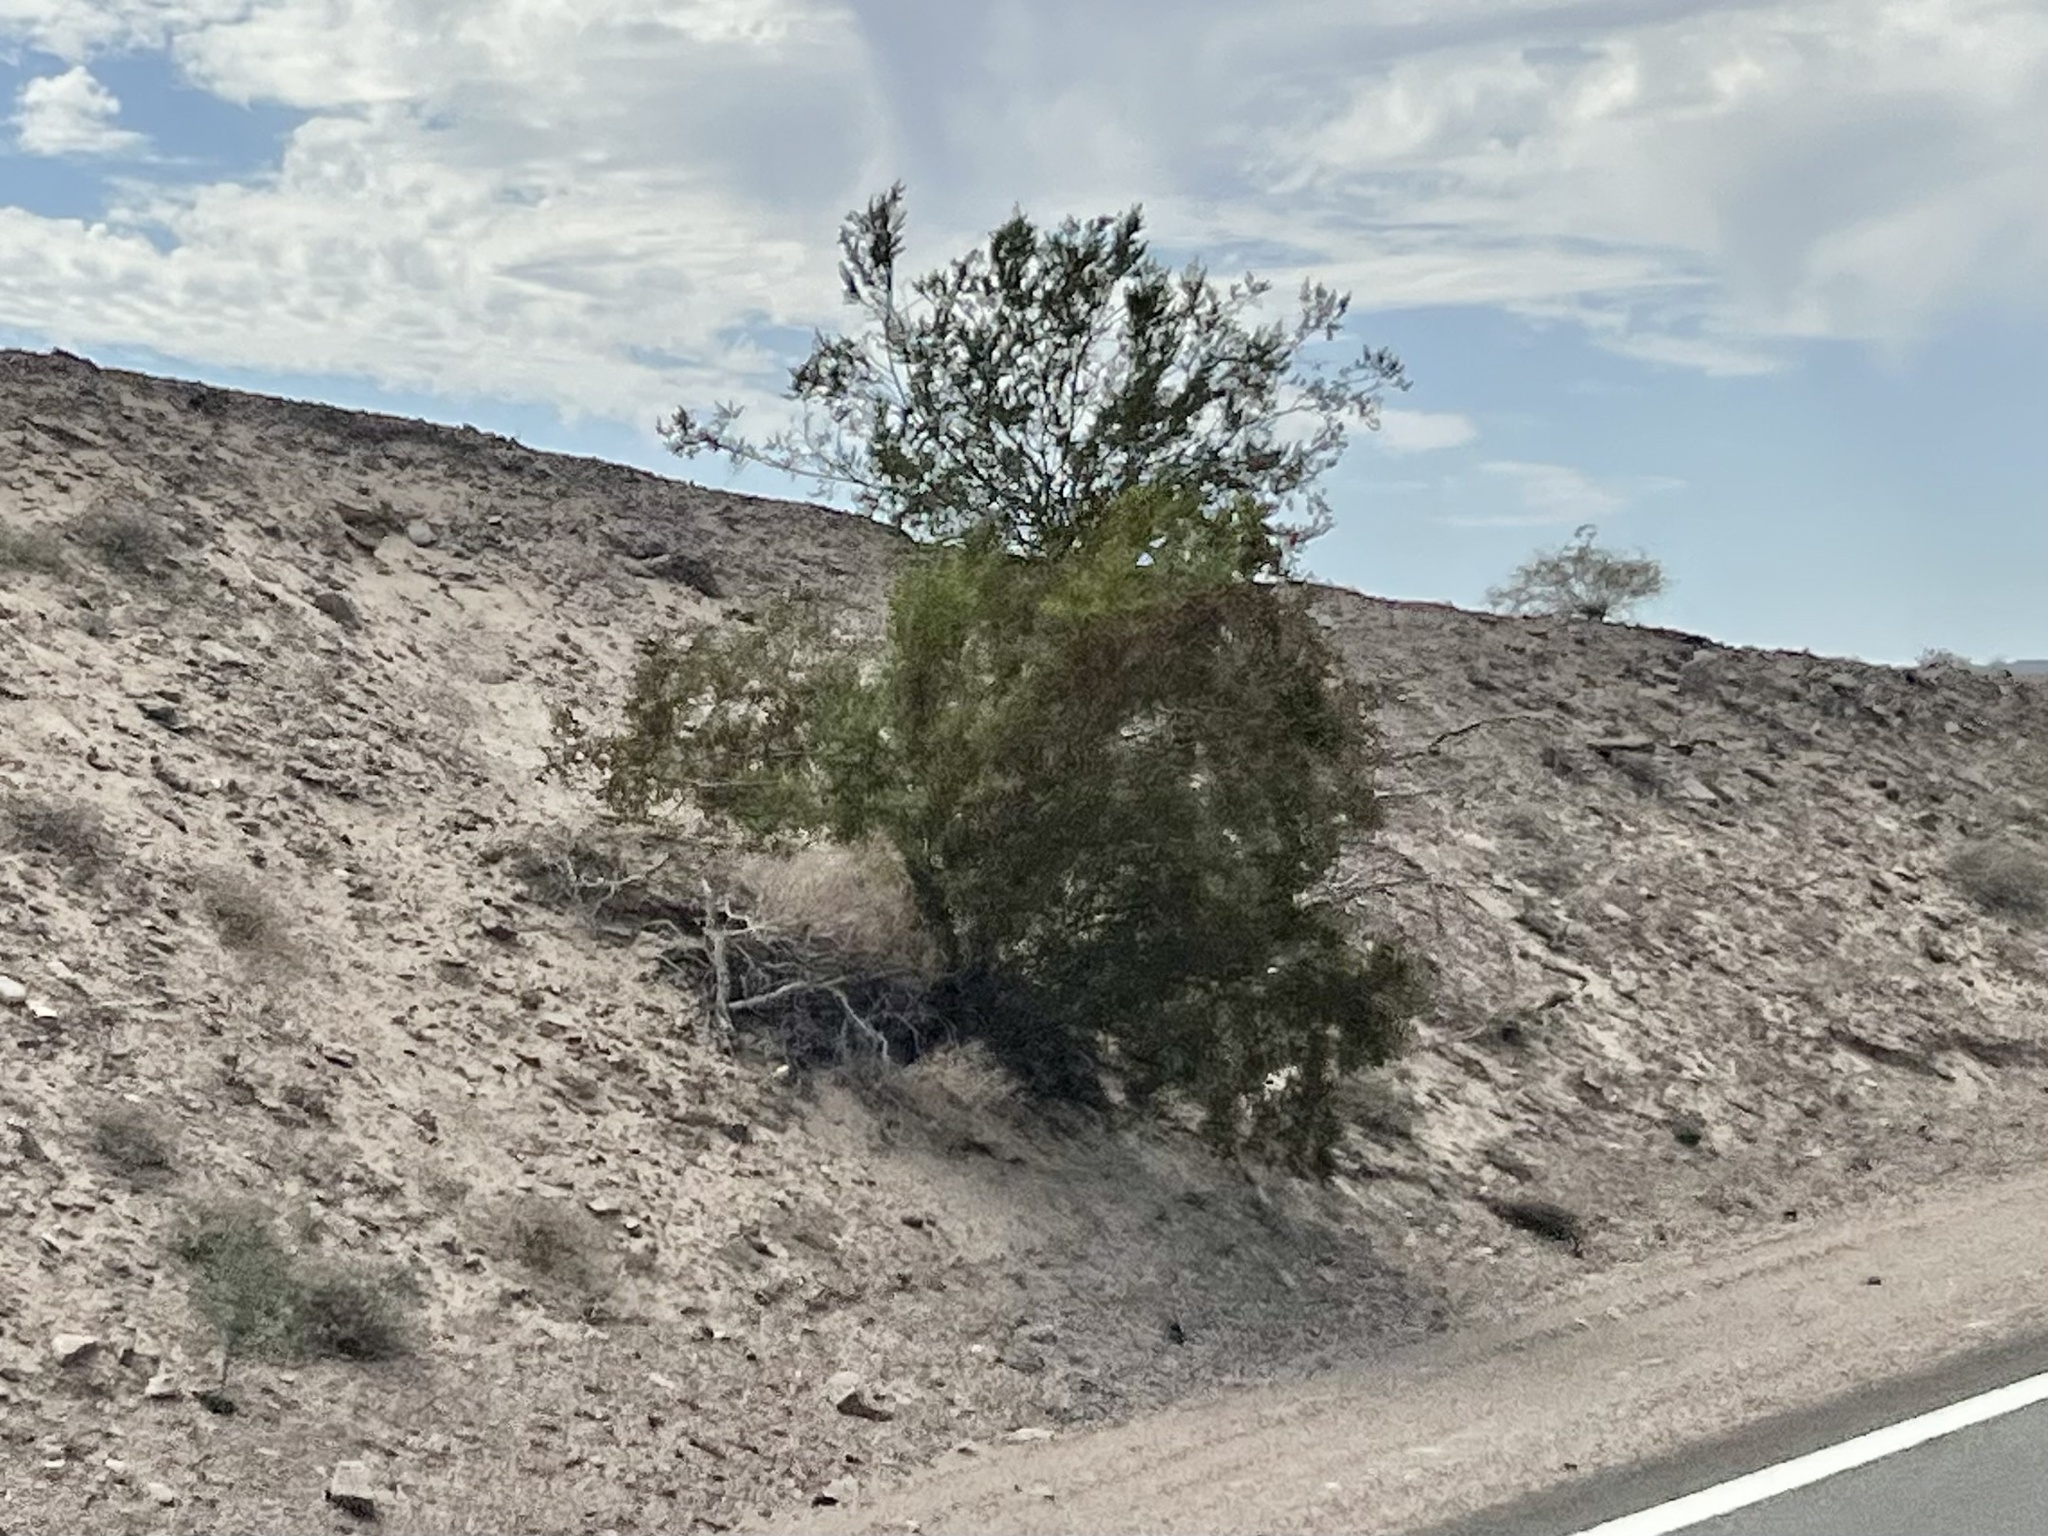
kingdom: Plantae
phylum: Tracheophyta
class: Magnoliopsida
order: Zygophyllales
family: Zygophyllaceae
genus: Larrea
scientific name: Larrea tridentata
